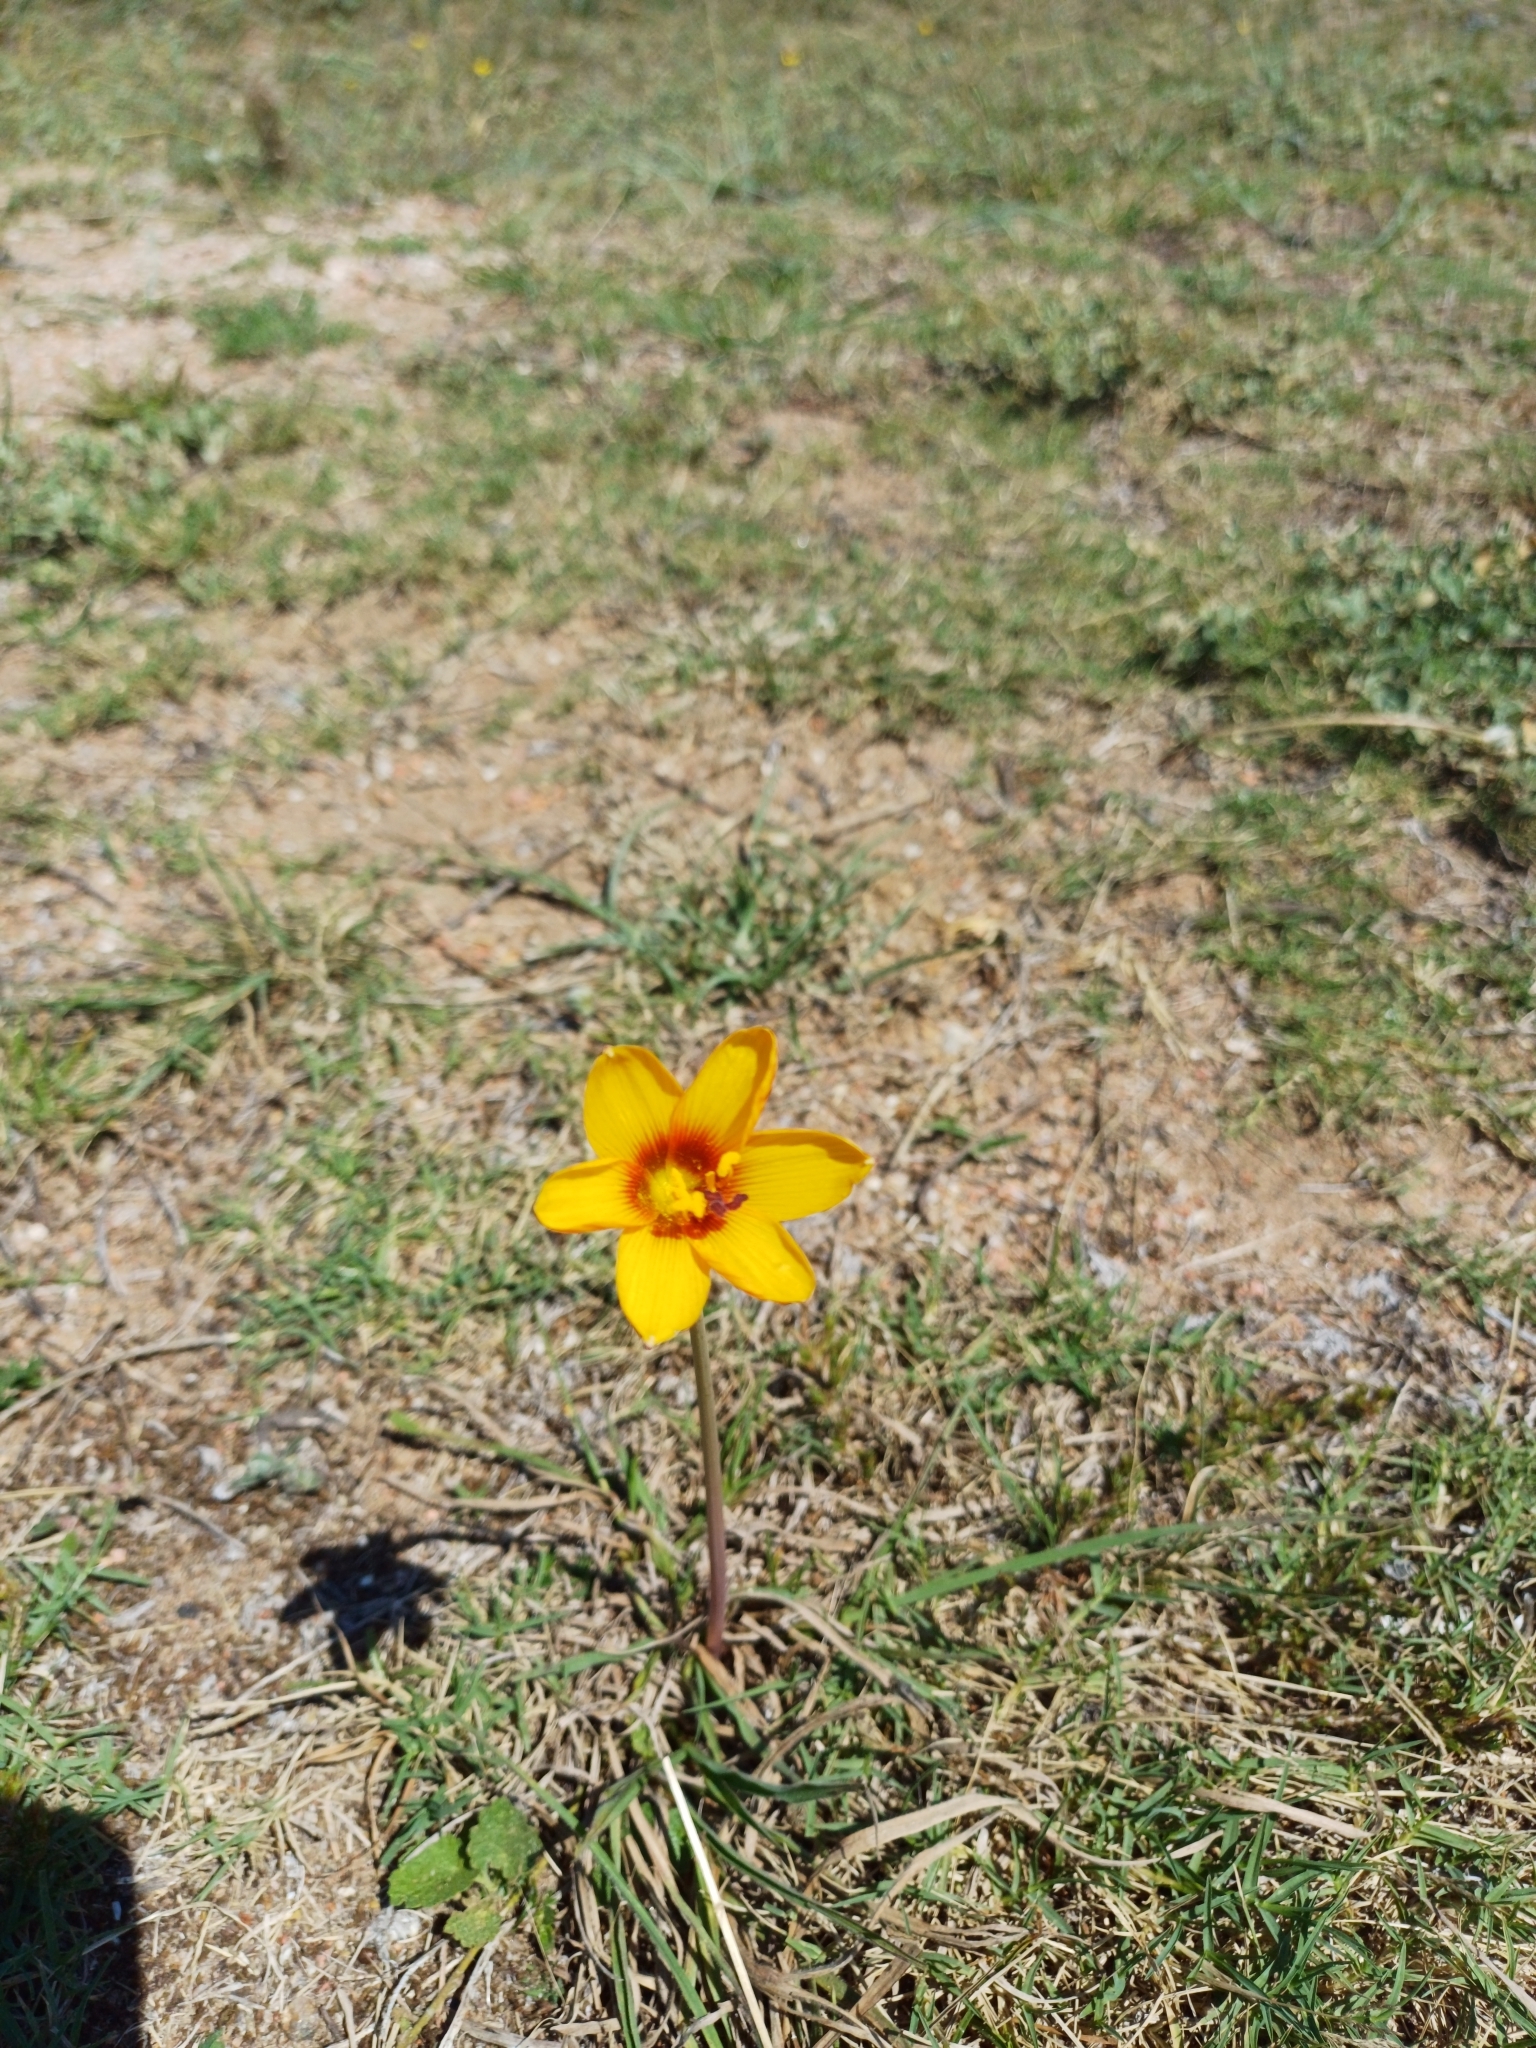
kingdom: Plantae
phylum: Tracheophyta
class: Liliopsida
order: Asparagales
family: Amaryllidaceae
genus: Zephyranthes
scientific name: Zephyranthes tubispatha
